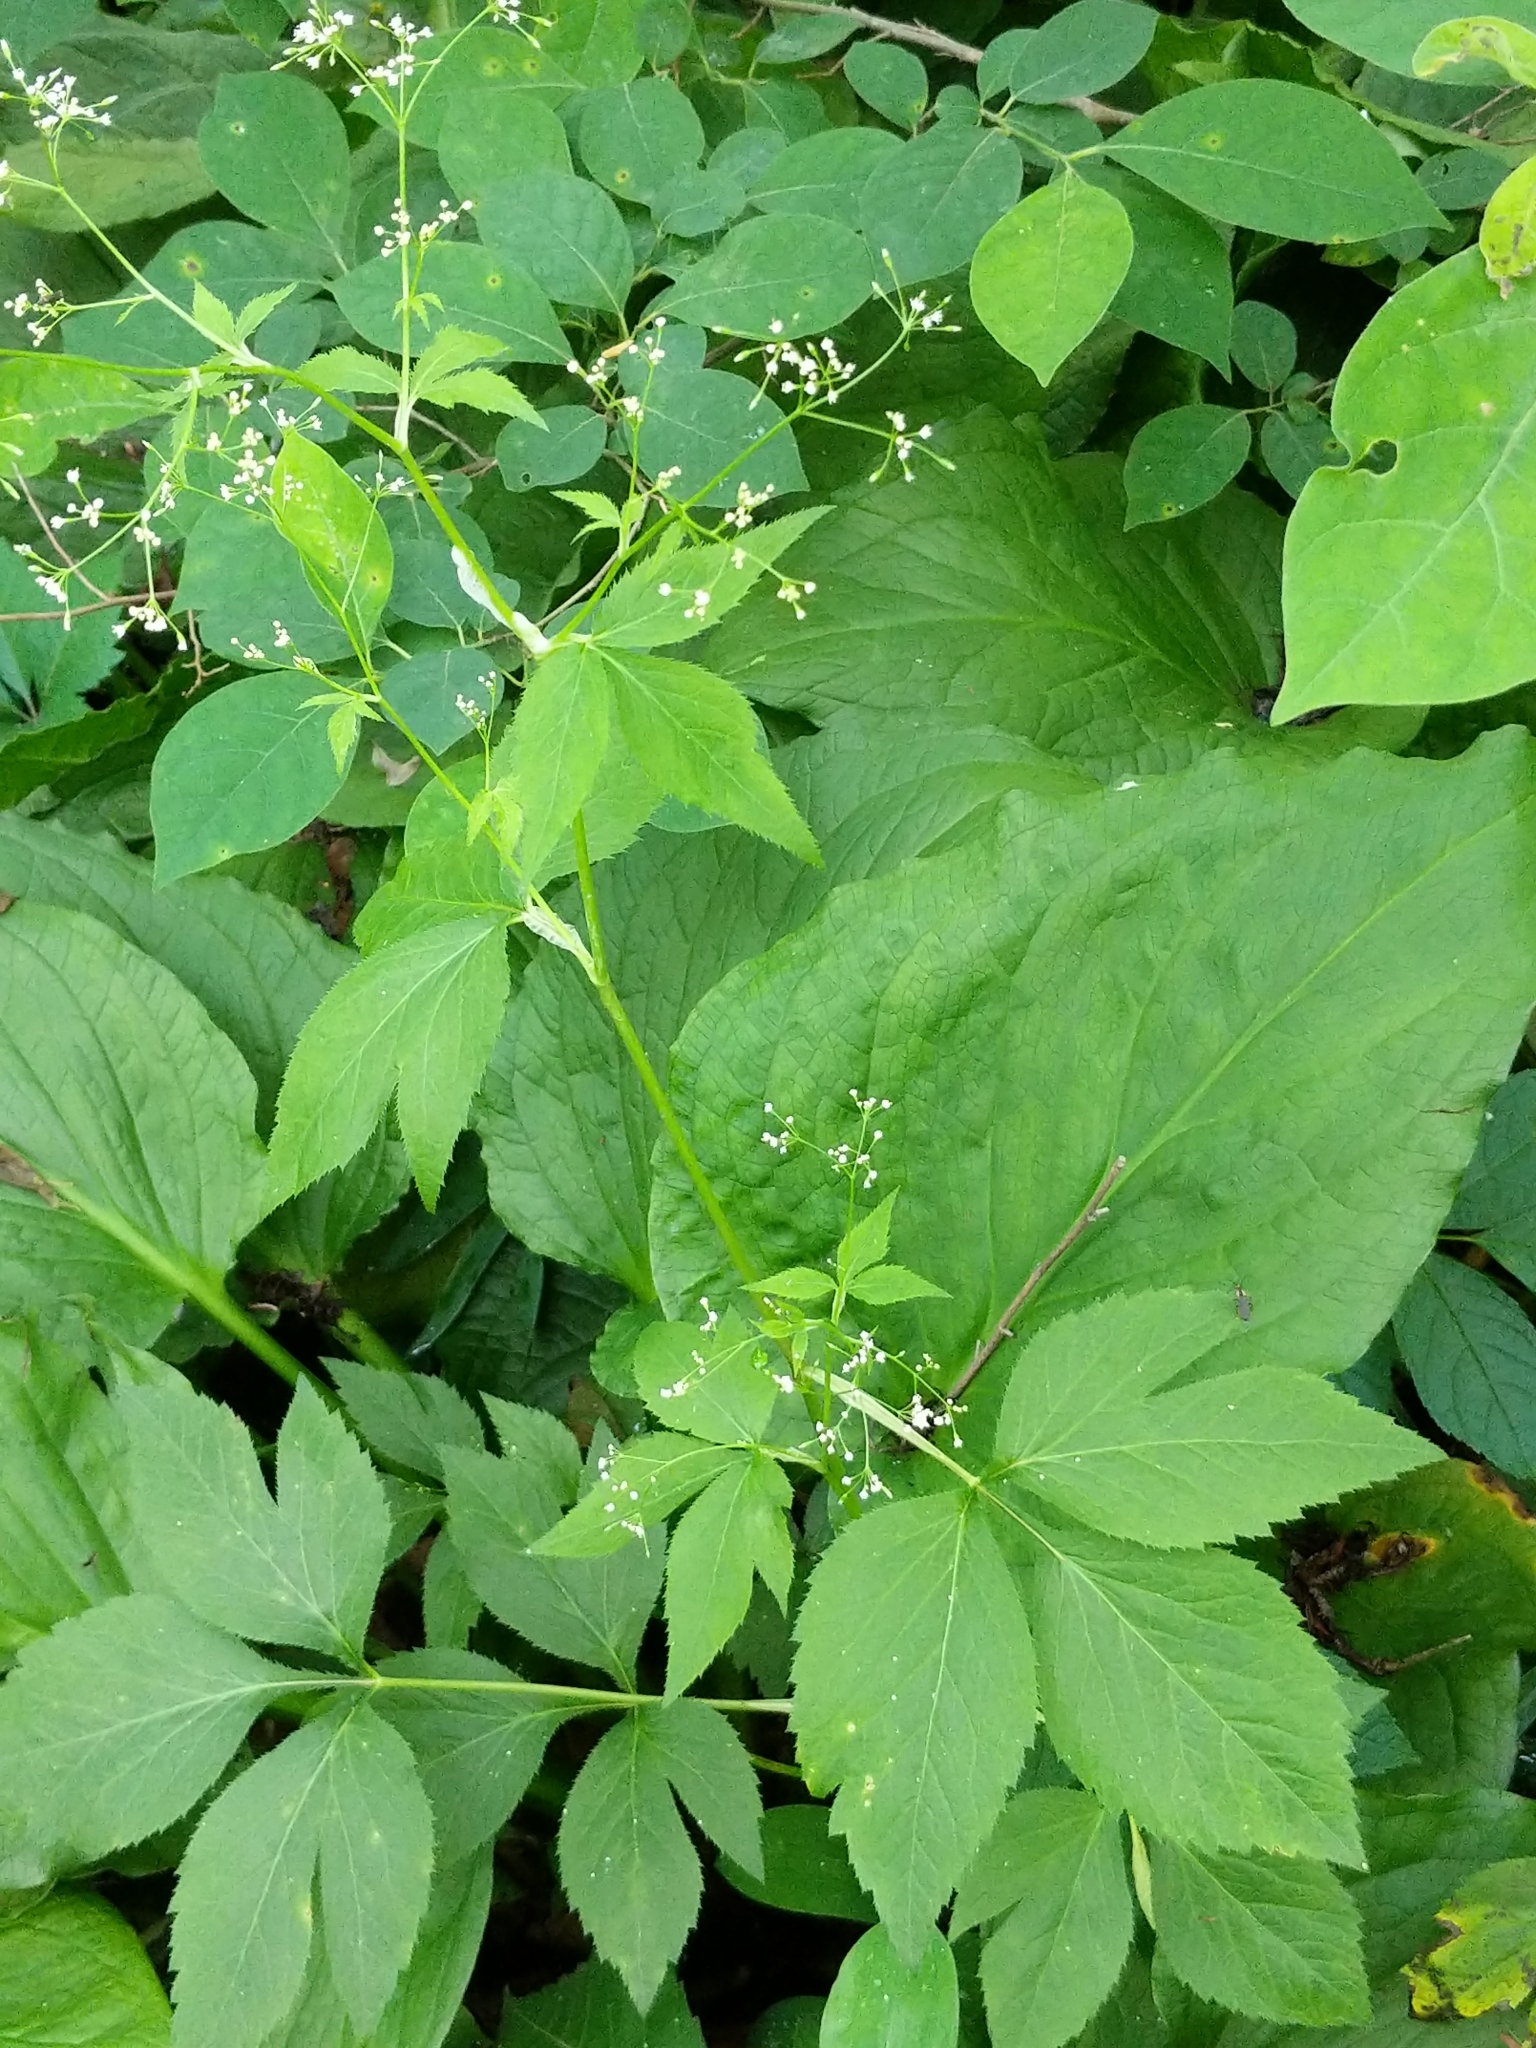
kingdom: Plantae
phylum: Tracheophyta
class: Magnoliopsida
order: Apiales
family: Apiaceae
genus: Cryptotaenia
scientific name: Cryptotaenia canadensis
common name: Honewort
